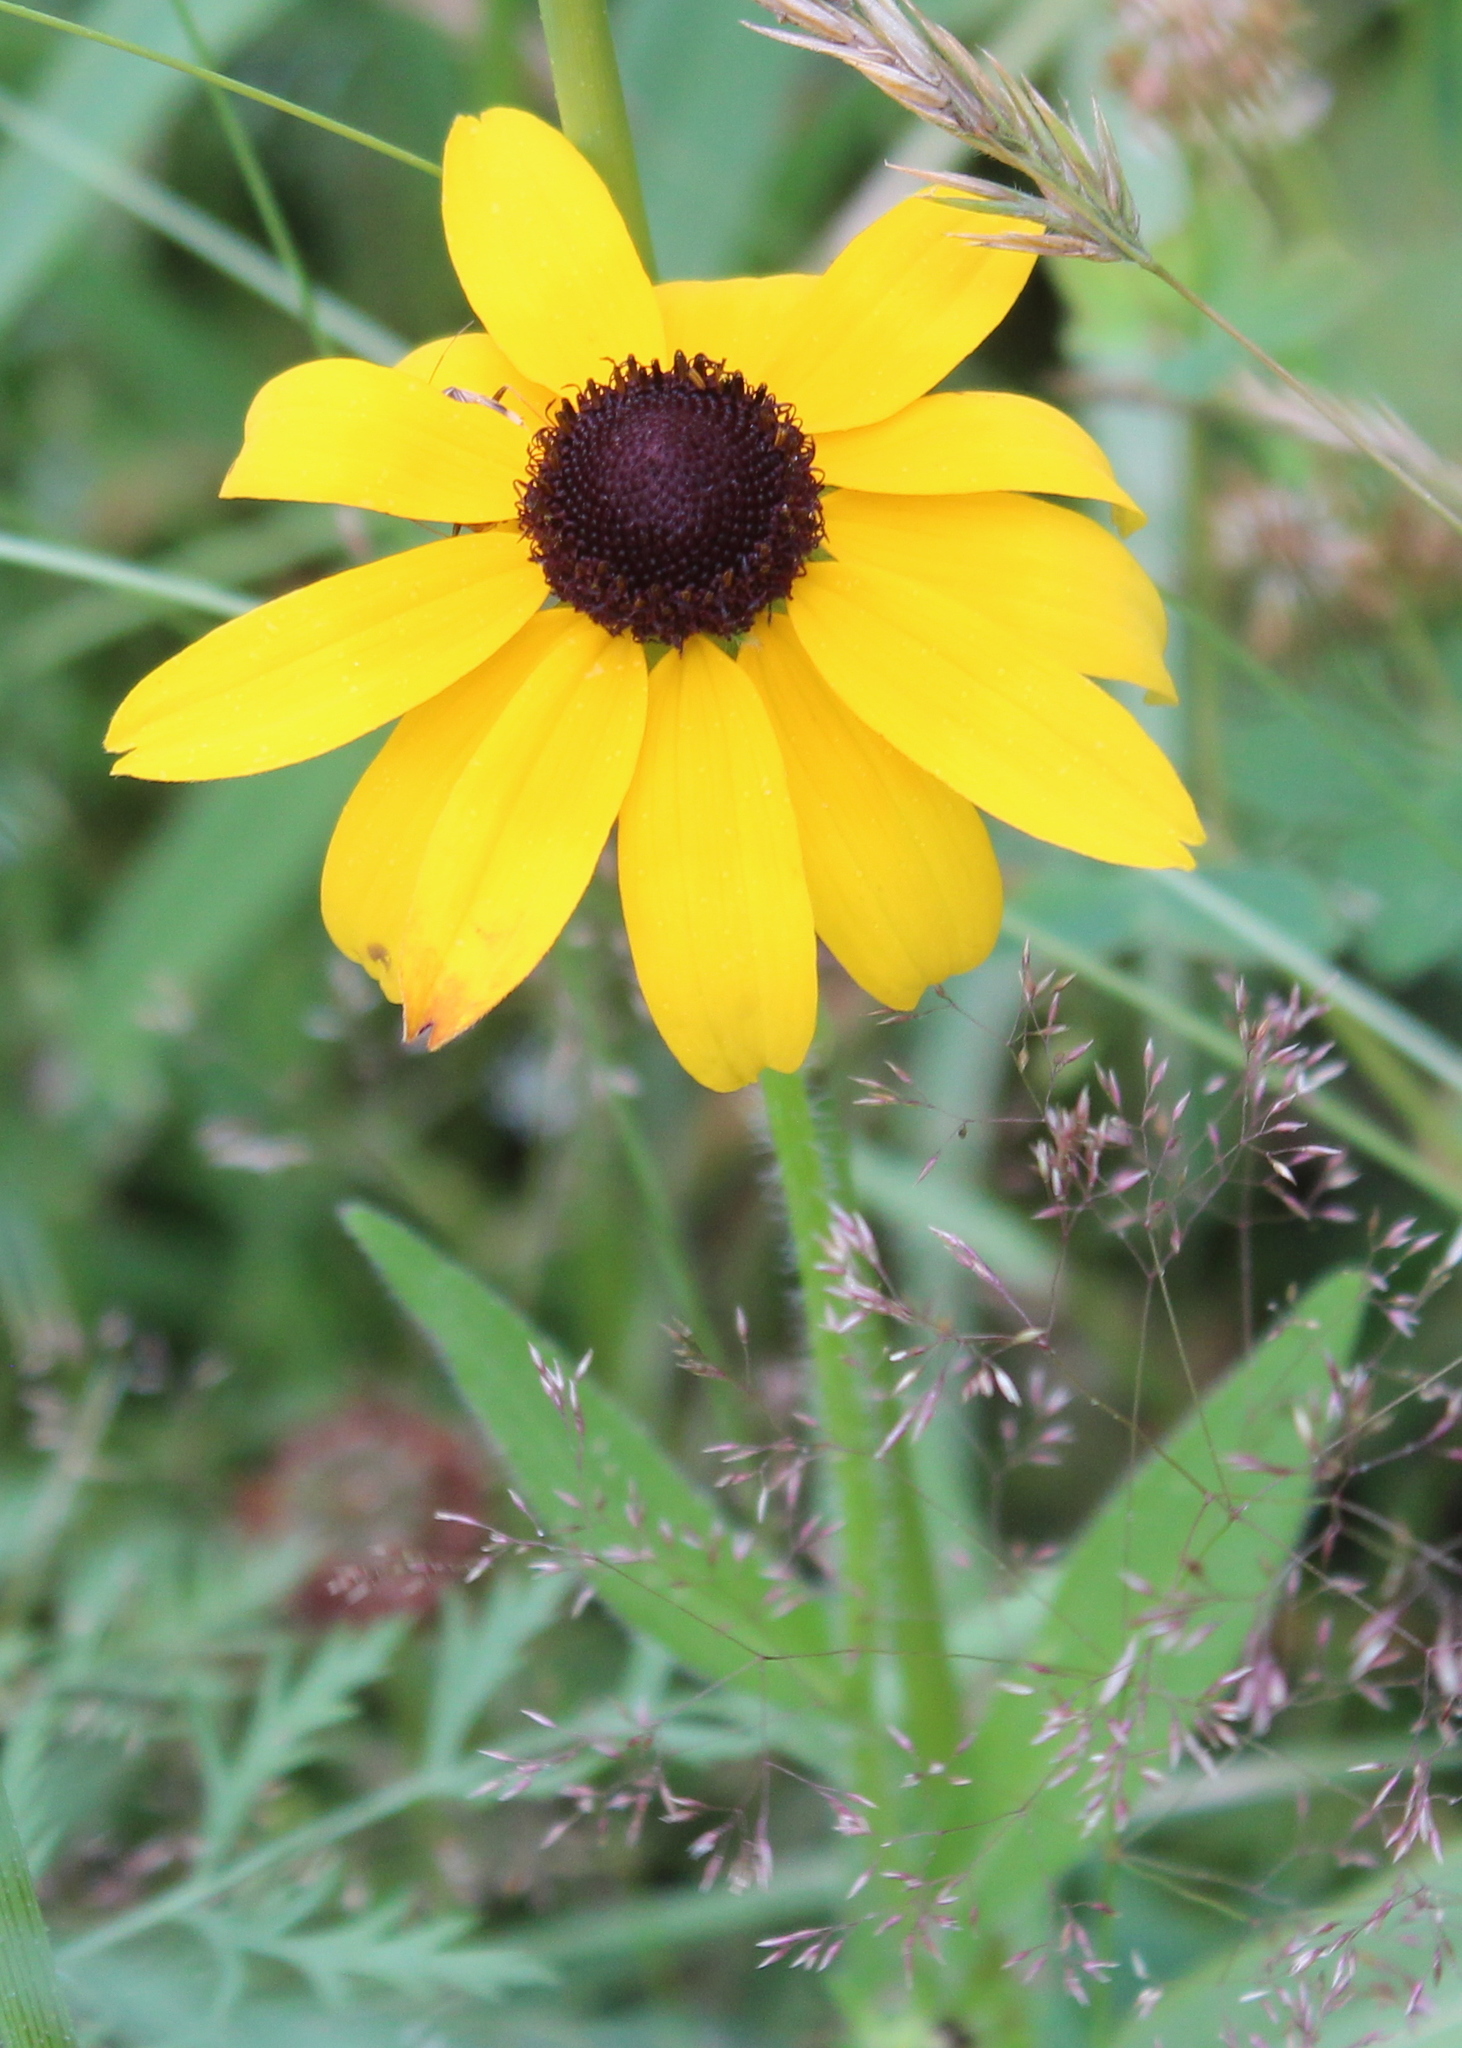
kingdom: Plantae
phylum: Tracheophyta
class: Magnoliopsida
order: Asterales
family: Asteraceae
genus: Rudbeckia
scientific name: Rudbeckia hirta
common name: Black-eyed-susan
